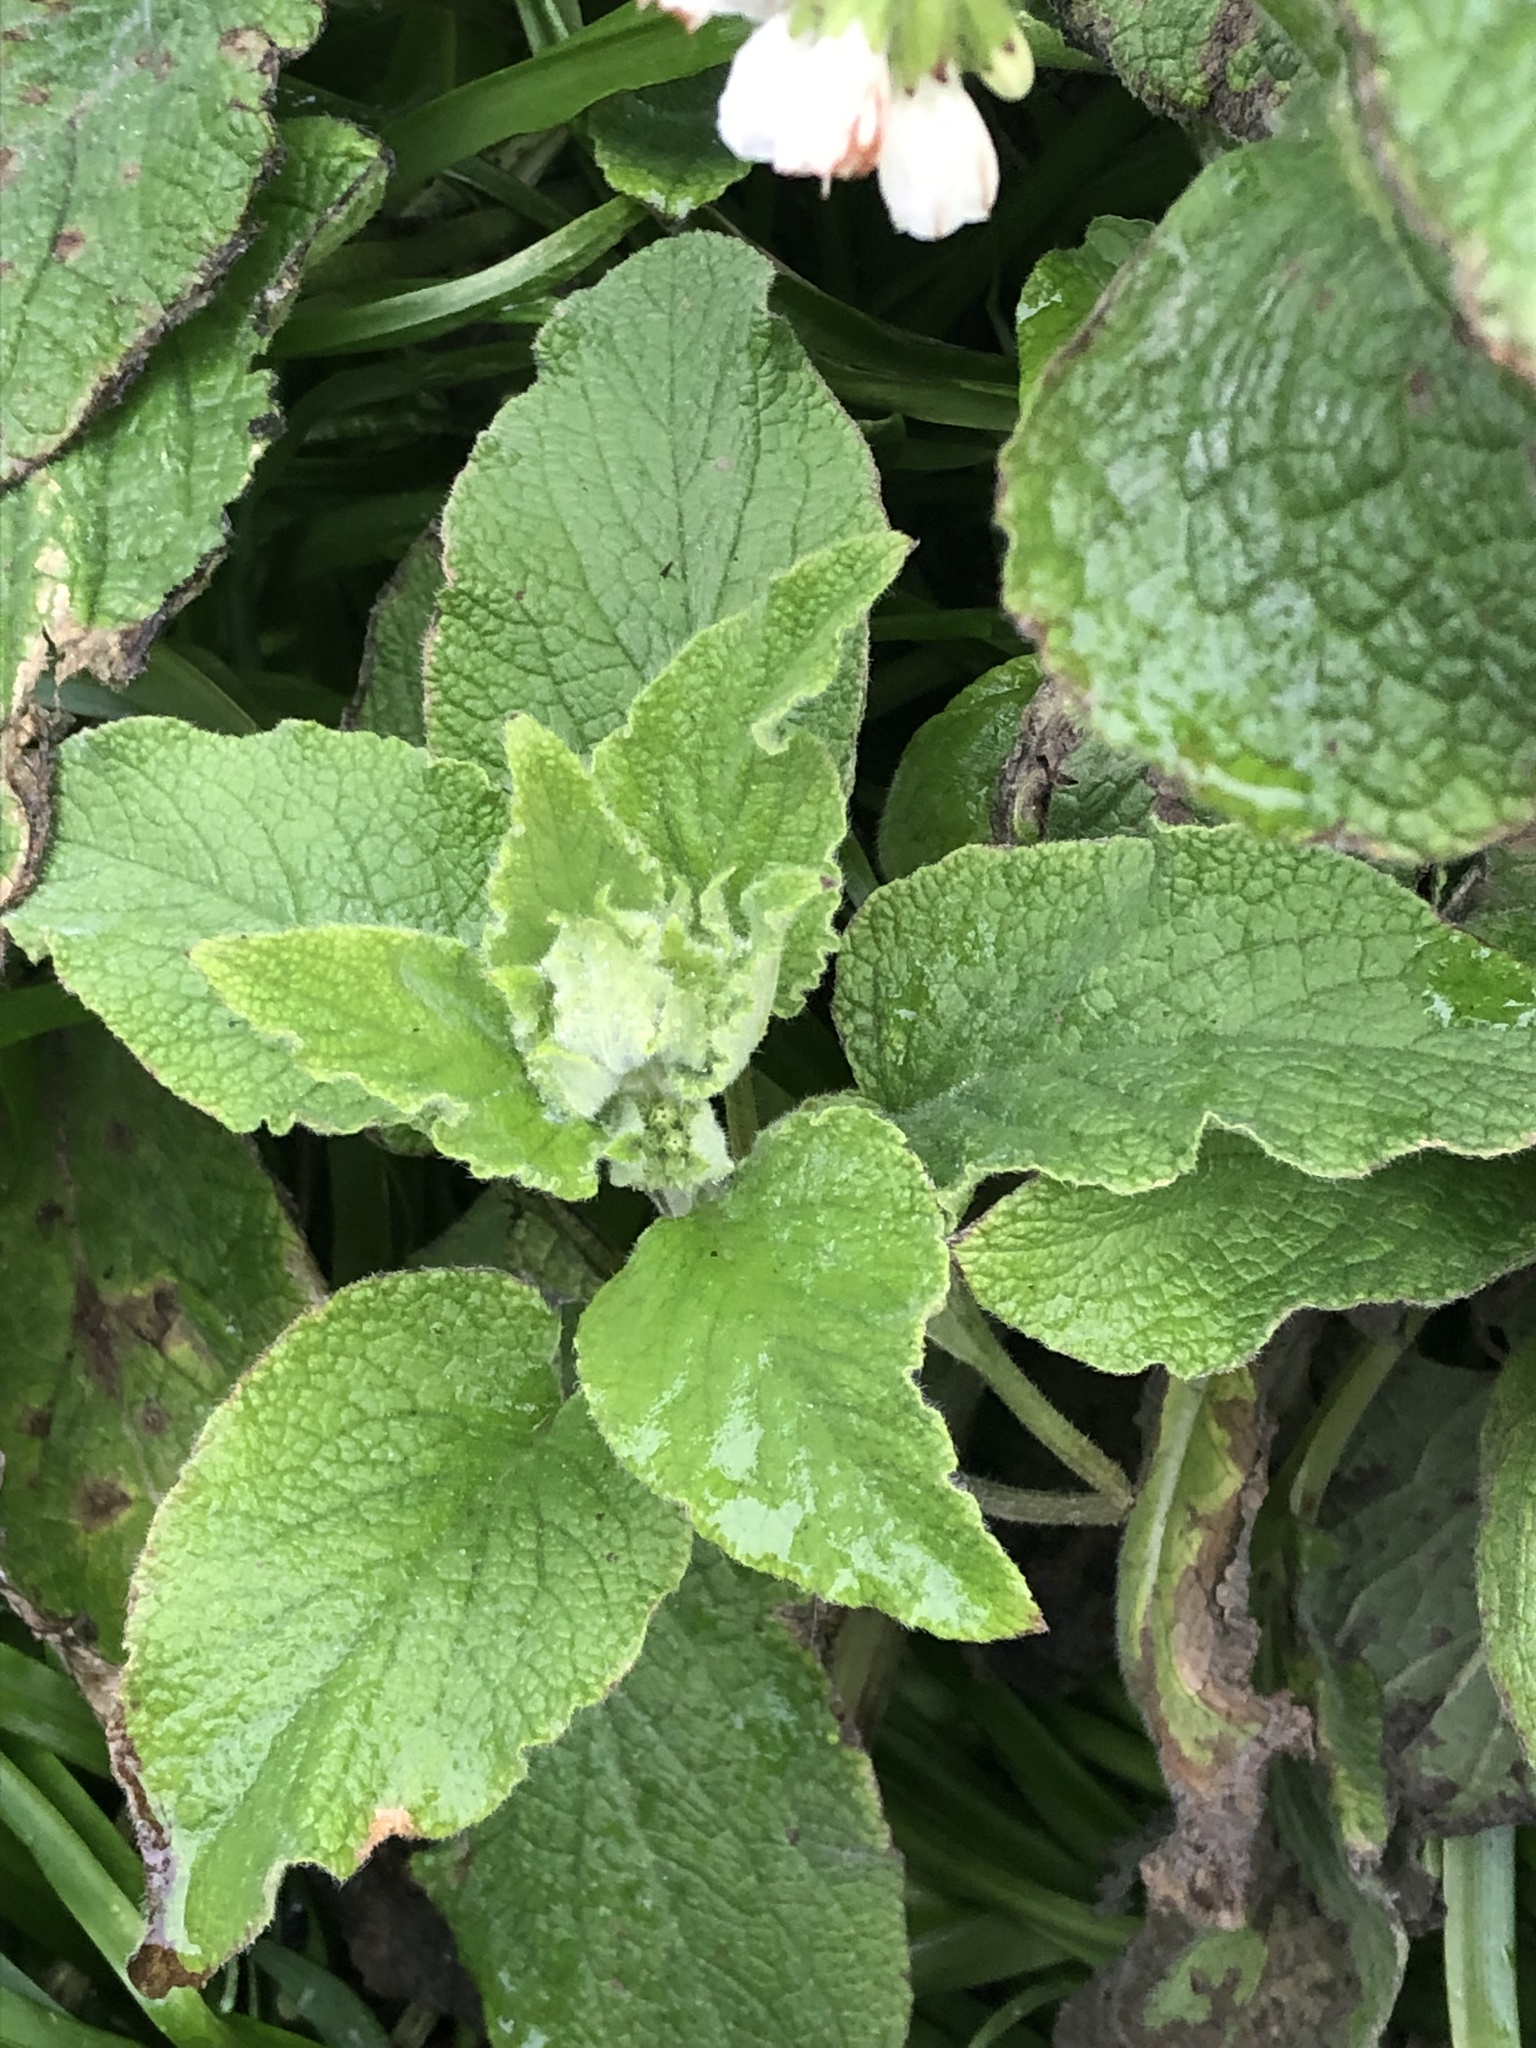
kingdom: Plantae
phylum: Tracheophyta
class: Magnoliopsida
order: Boraginales
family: Boraginaceae
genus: Symphytum
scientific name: Symphytum orientale
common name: White comfrey
